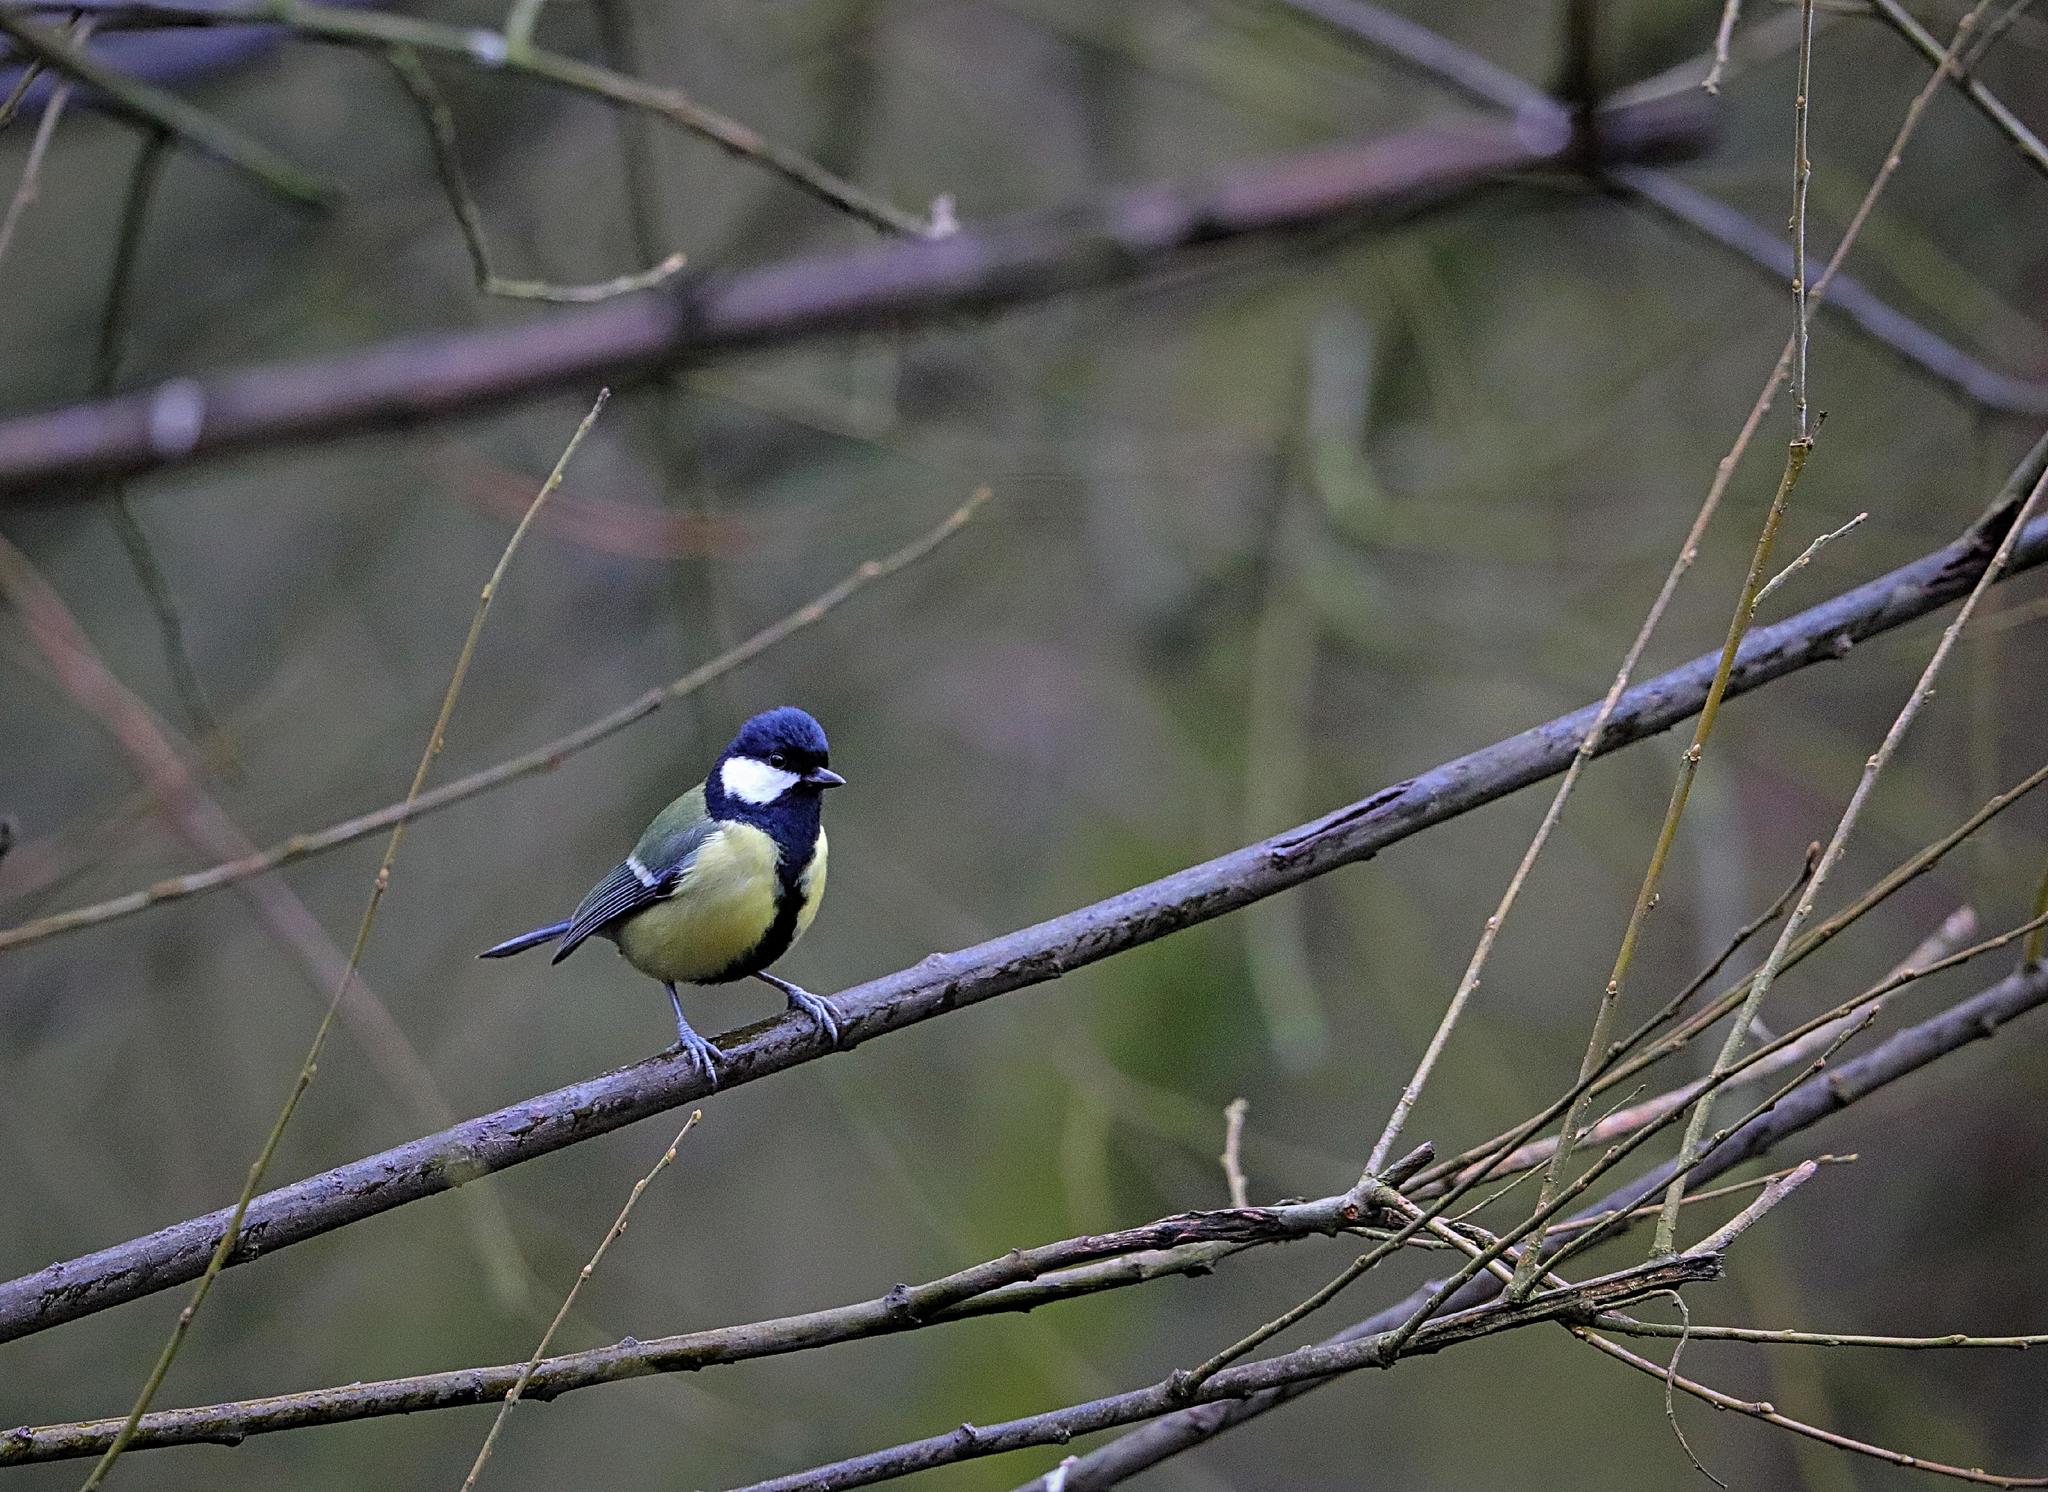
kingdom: Animalia
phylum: Chordata
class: Aves
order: Passeriformes
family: Paridae
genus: Parus
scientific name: Parus major
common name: Great tit
